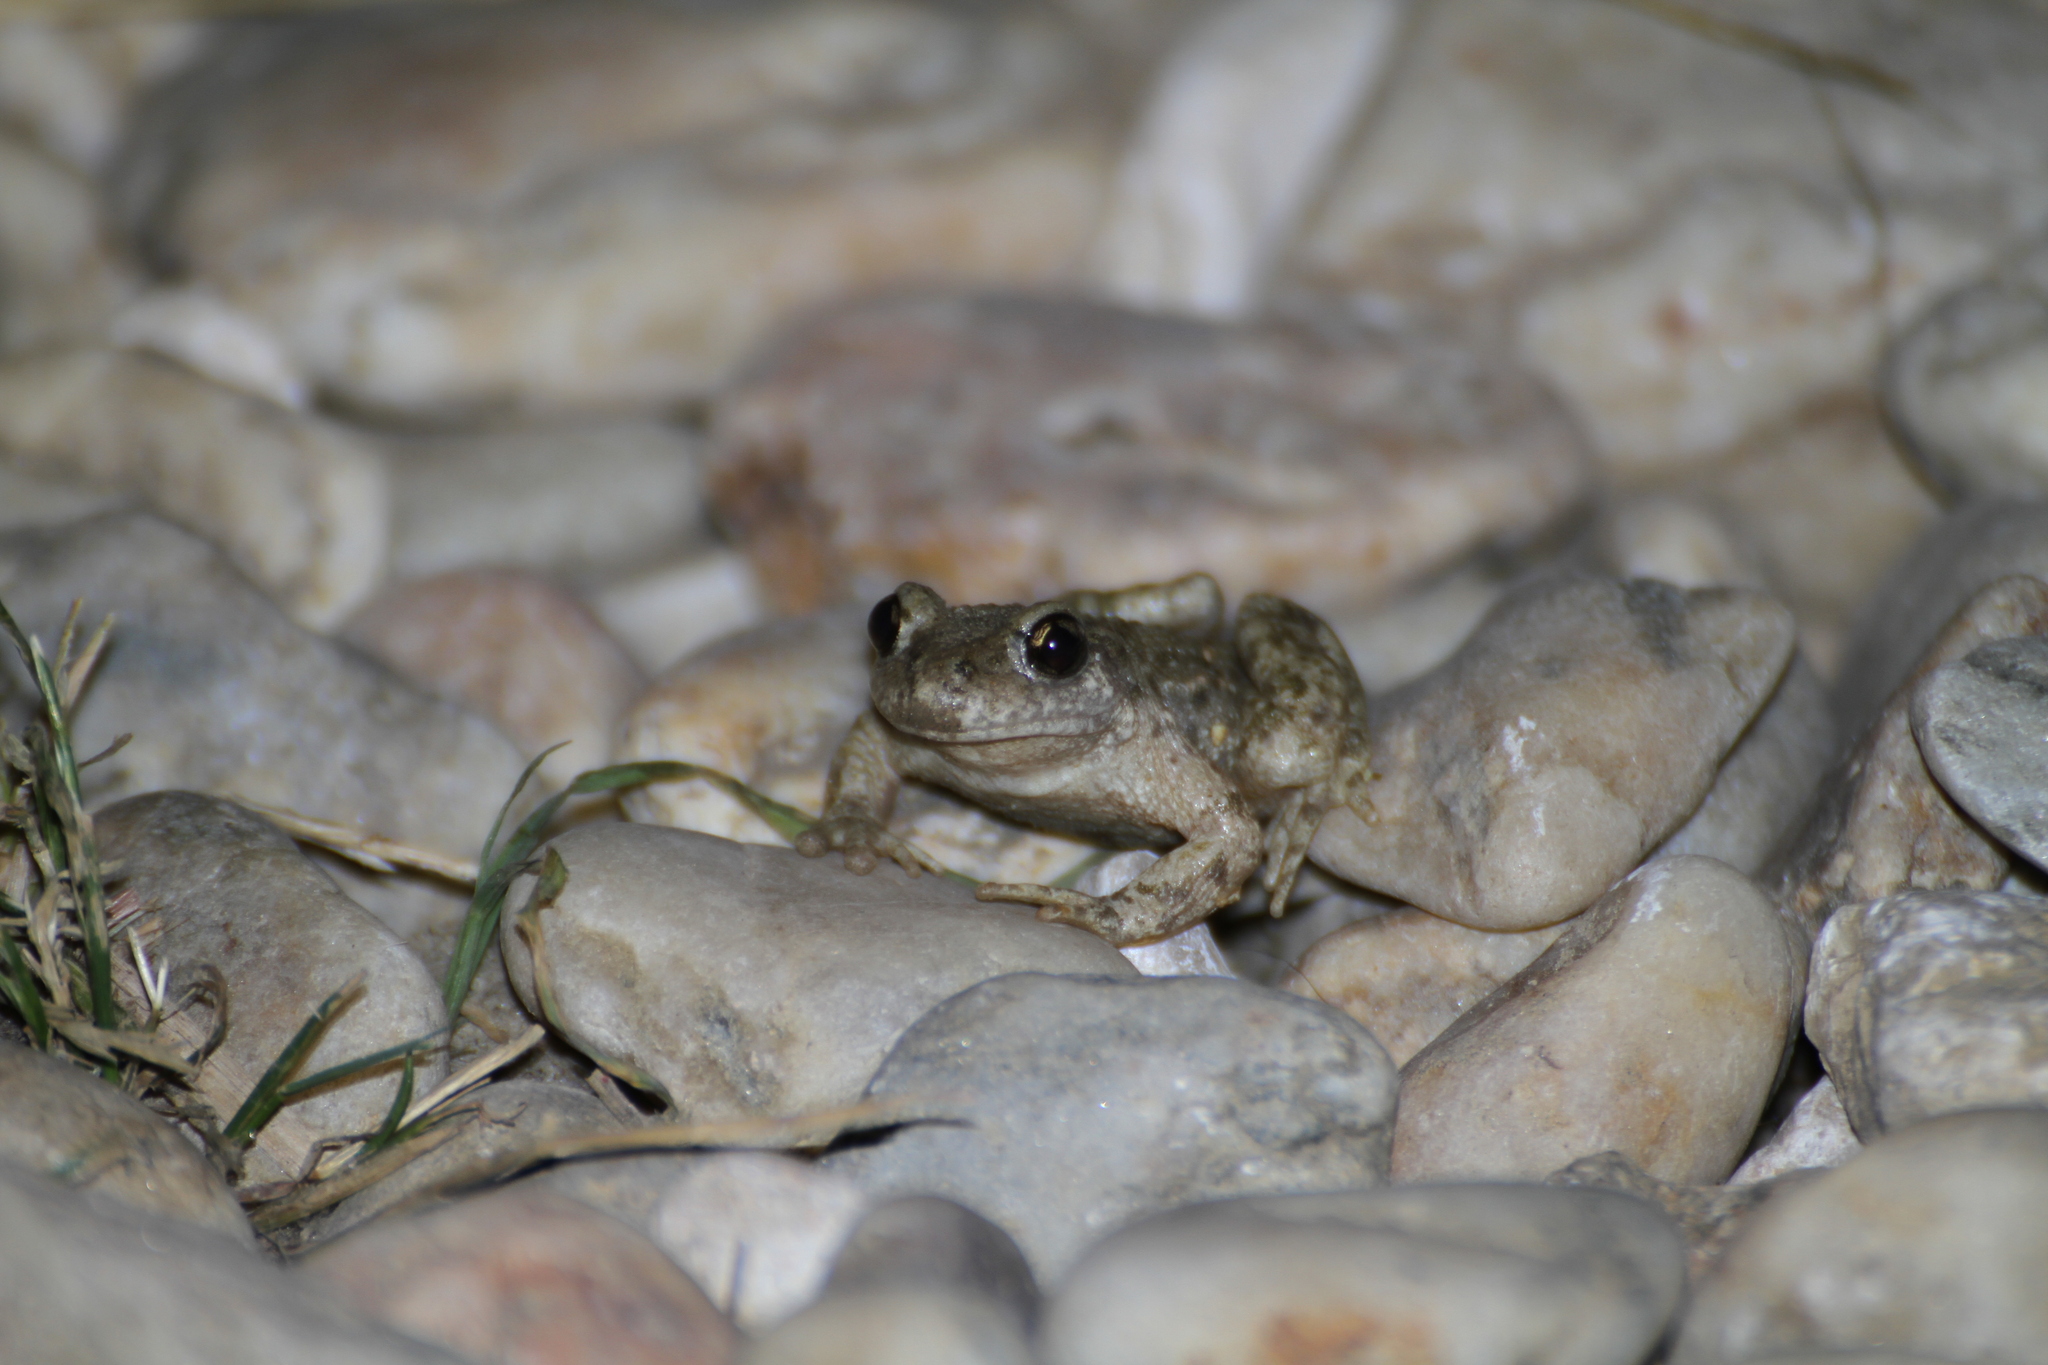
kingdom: Animalia
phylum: Chordata
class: Amphibia
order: Anura
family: Alytidae
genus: Alytes
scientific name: Alytes obstetricans
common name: Midwife toad
